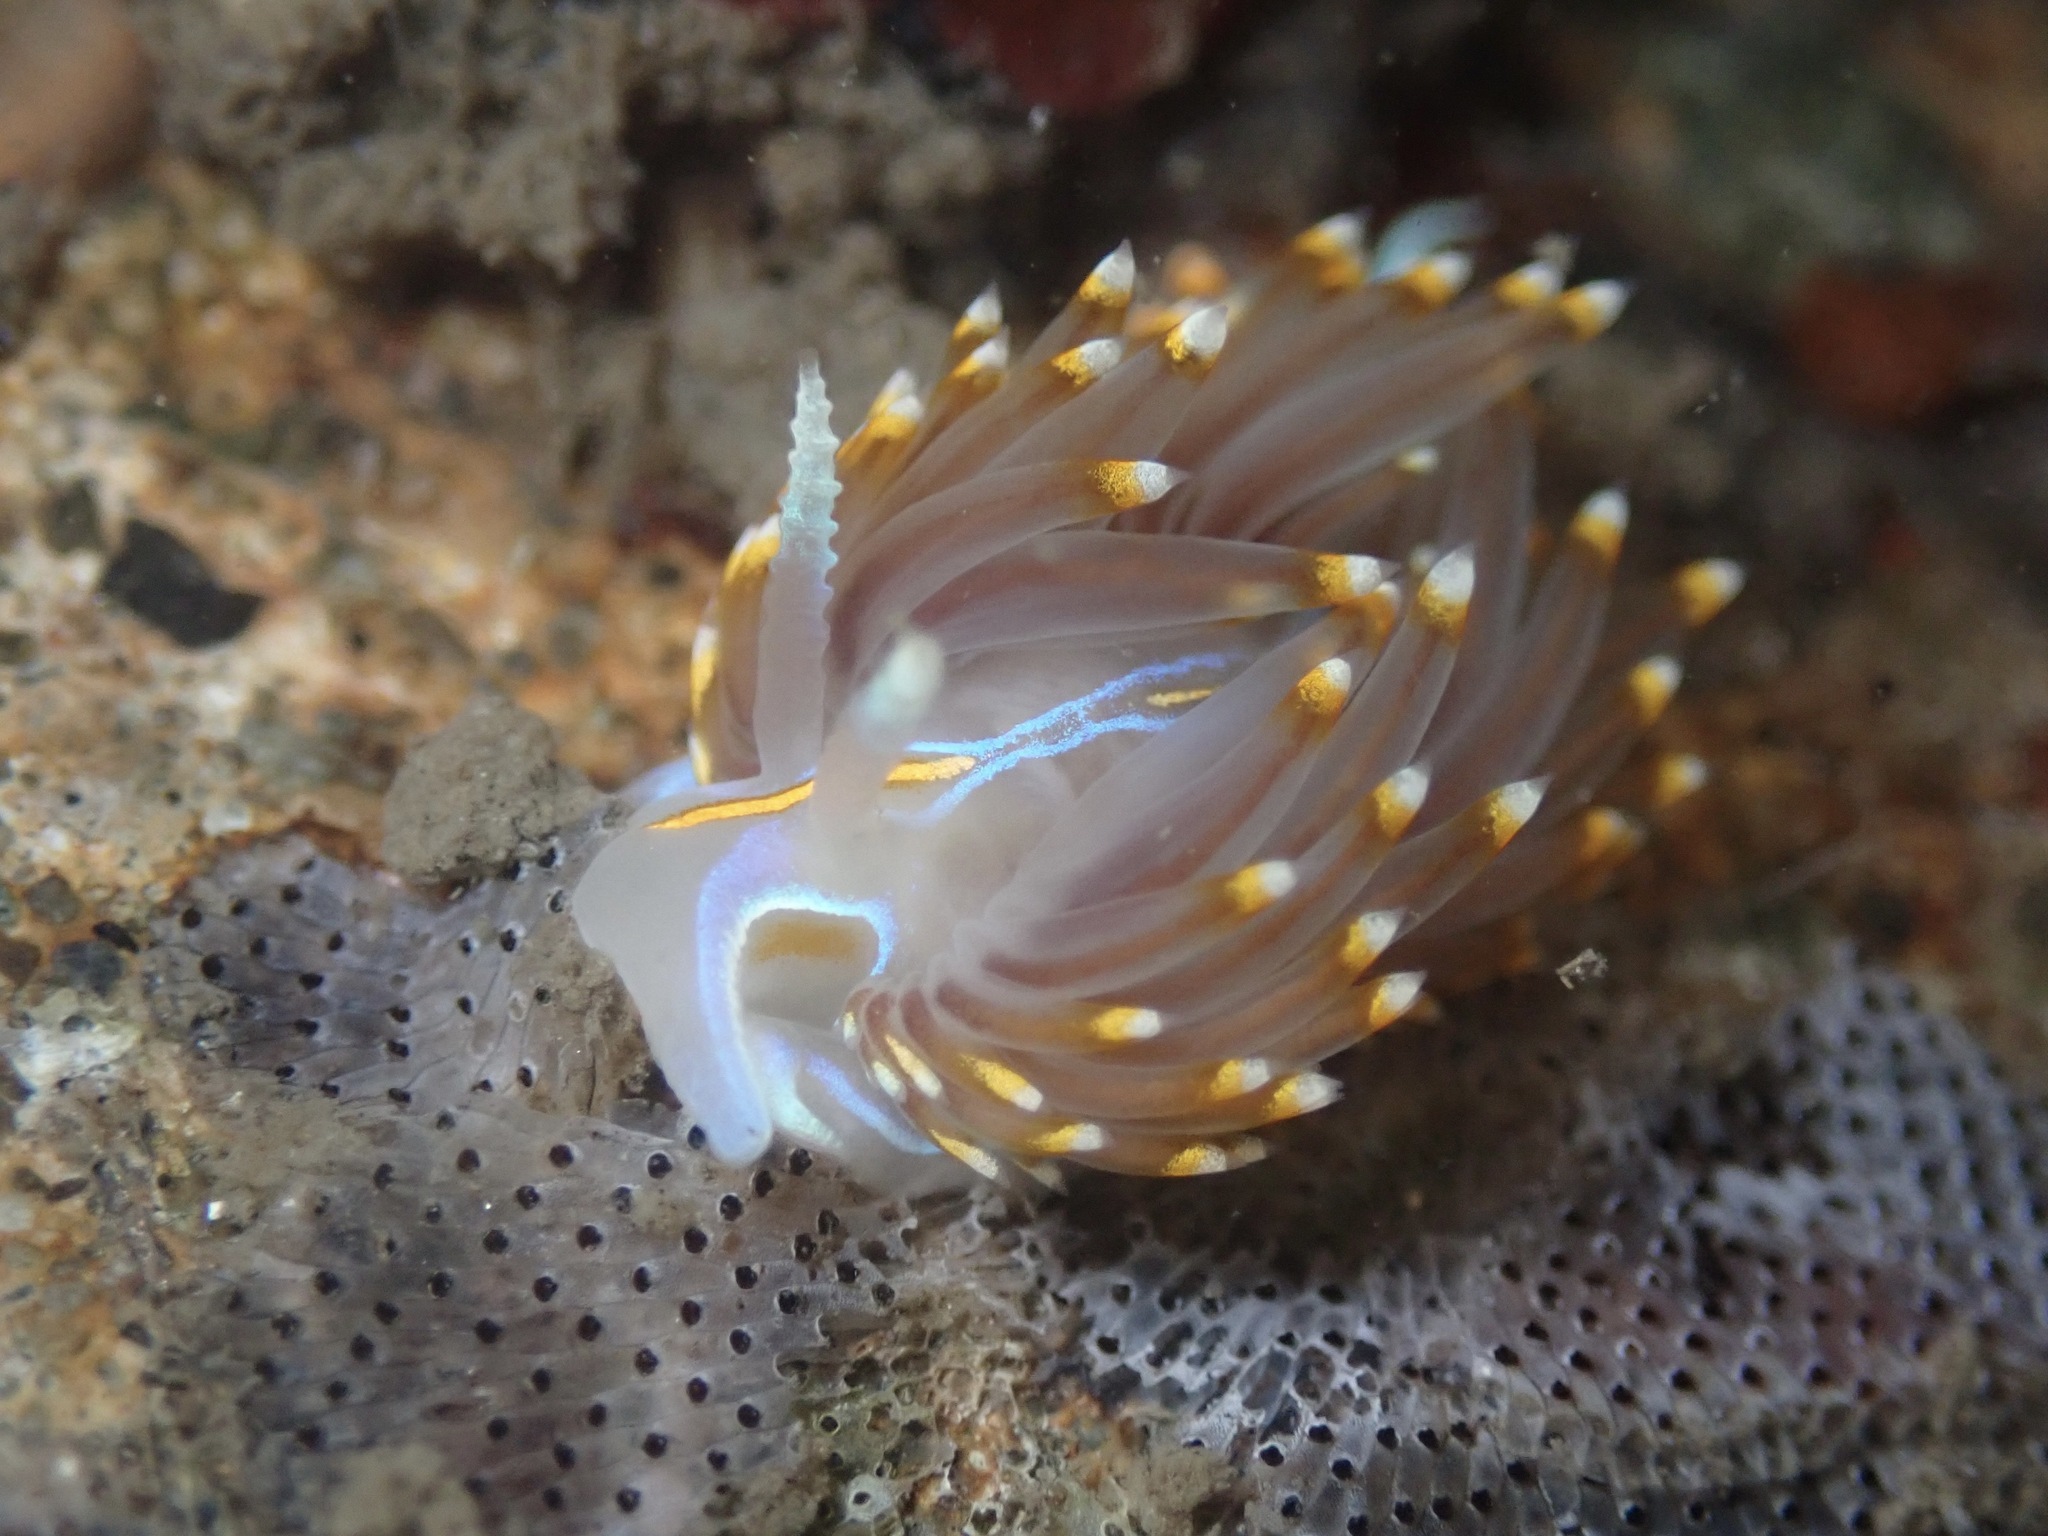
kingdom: Animalia
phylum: Mollusca
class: Gastropoda
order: Nudibranchia
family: Myrrhinidae
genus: Hermissenda
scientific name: Hermissenda opalescens
